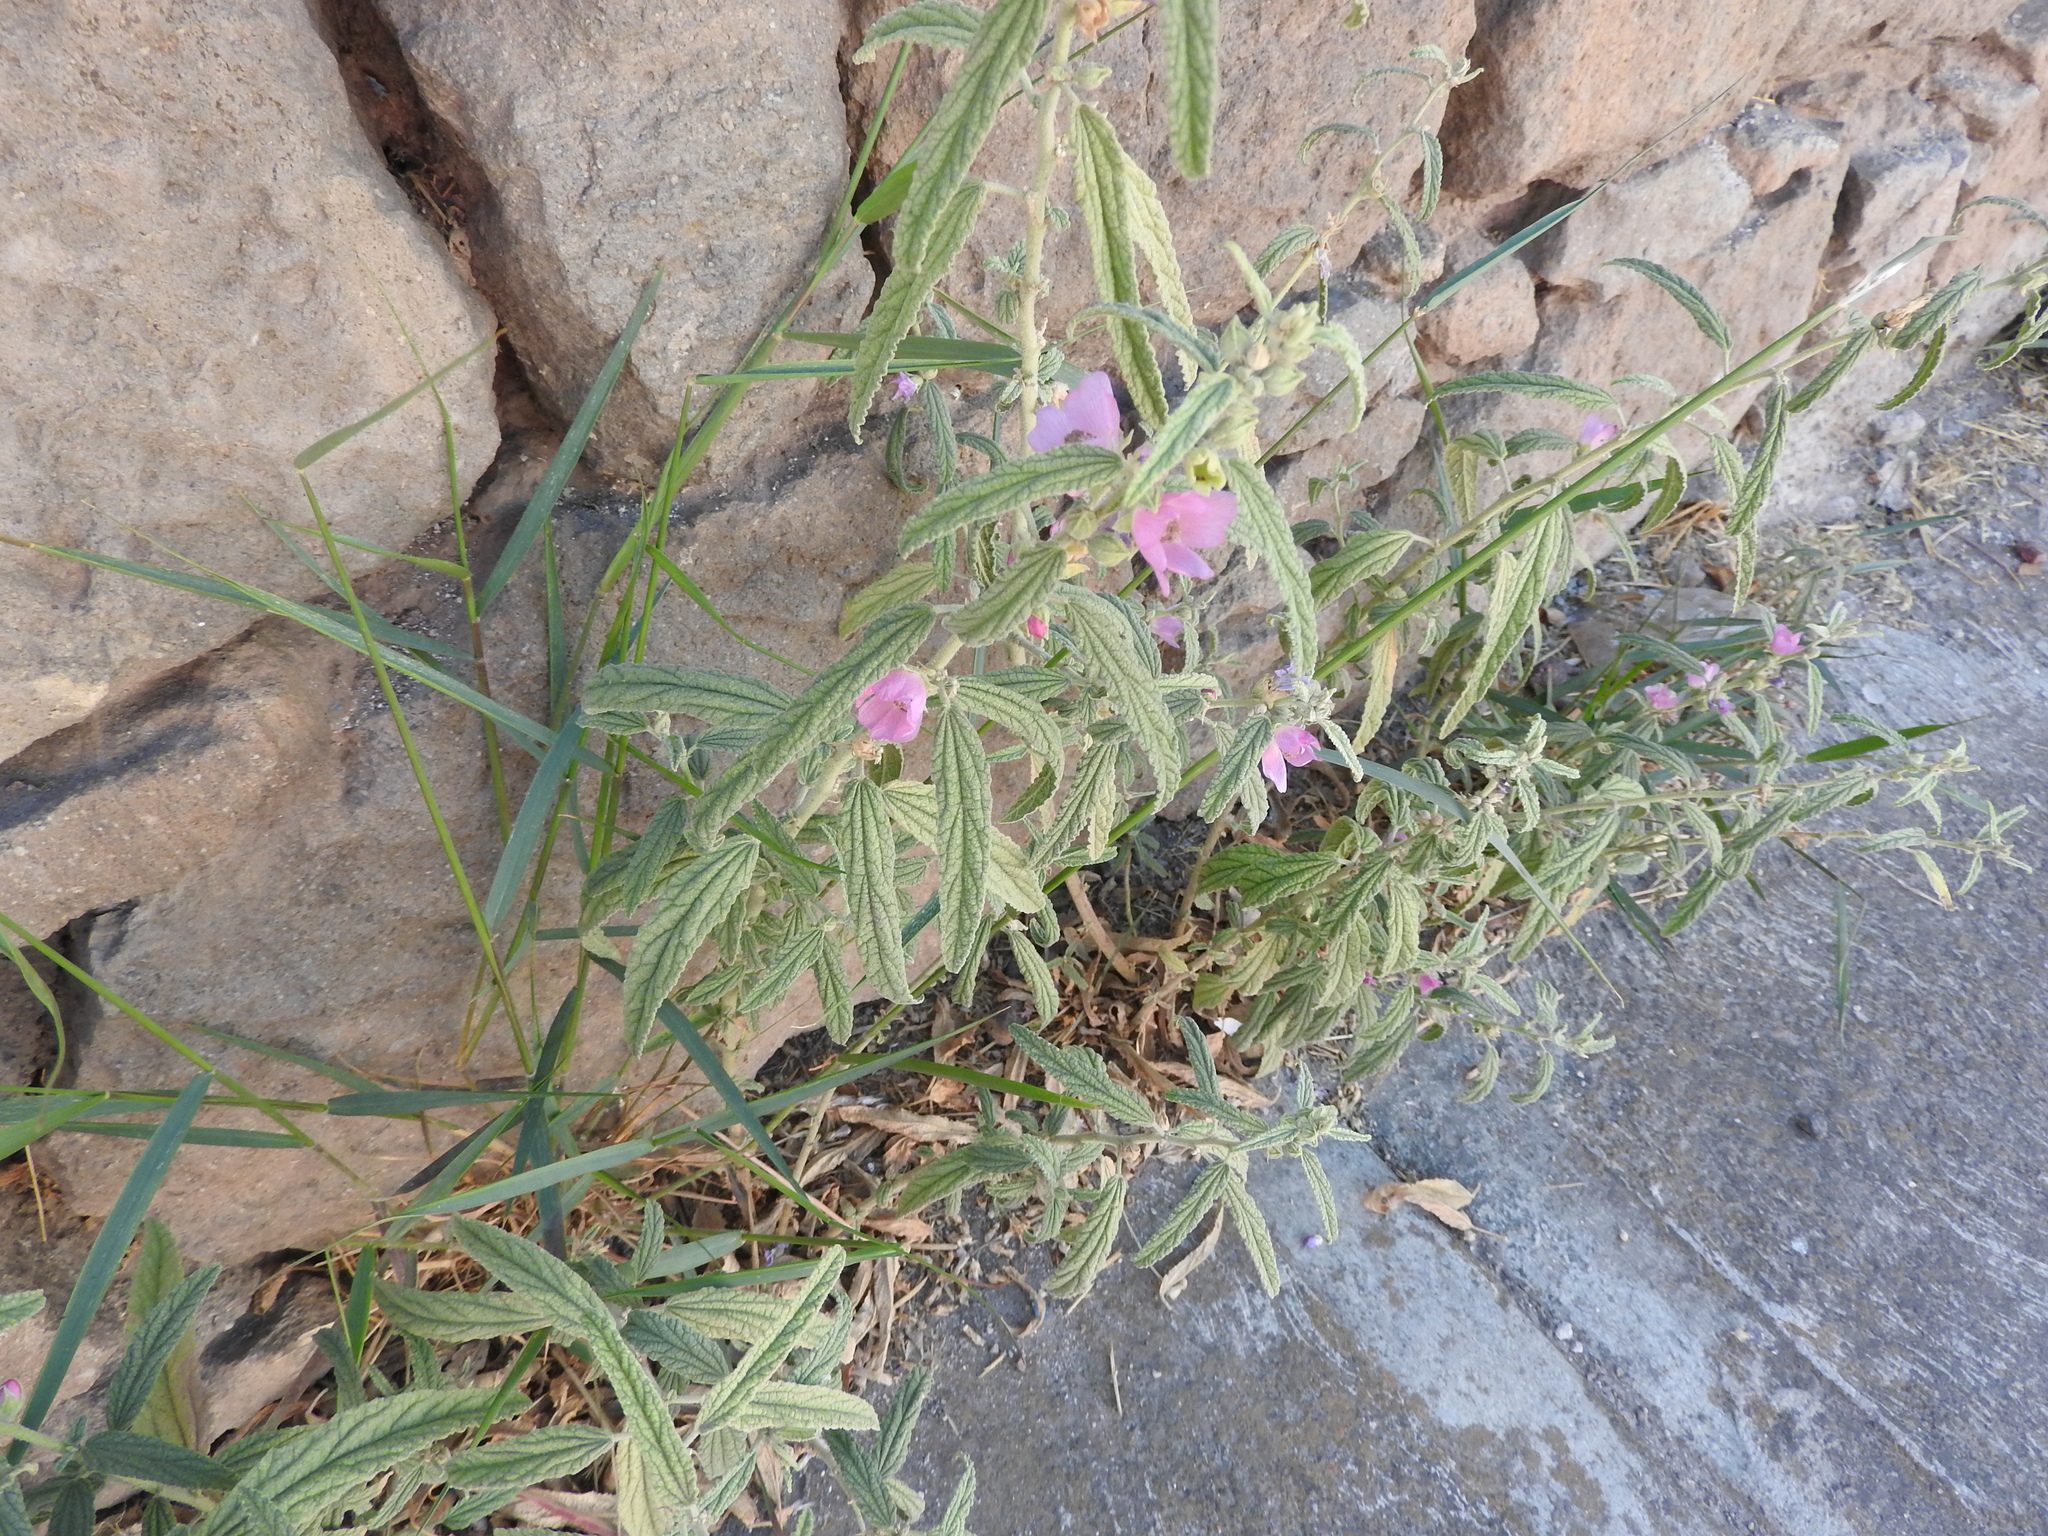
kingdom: Plantae
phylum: Tracheophyta
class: Magnoliopsida
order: Malvales
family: Malvaceae
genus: Sphaeralcea
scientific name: Sphaeralcea angustifolia
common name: Copper globe-mallow
